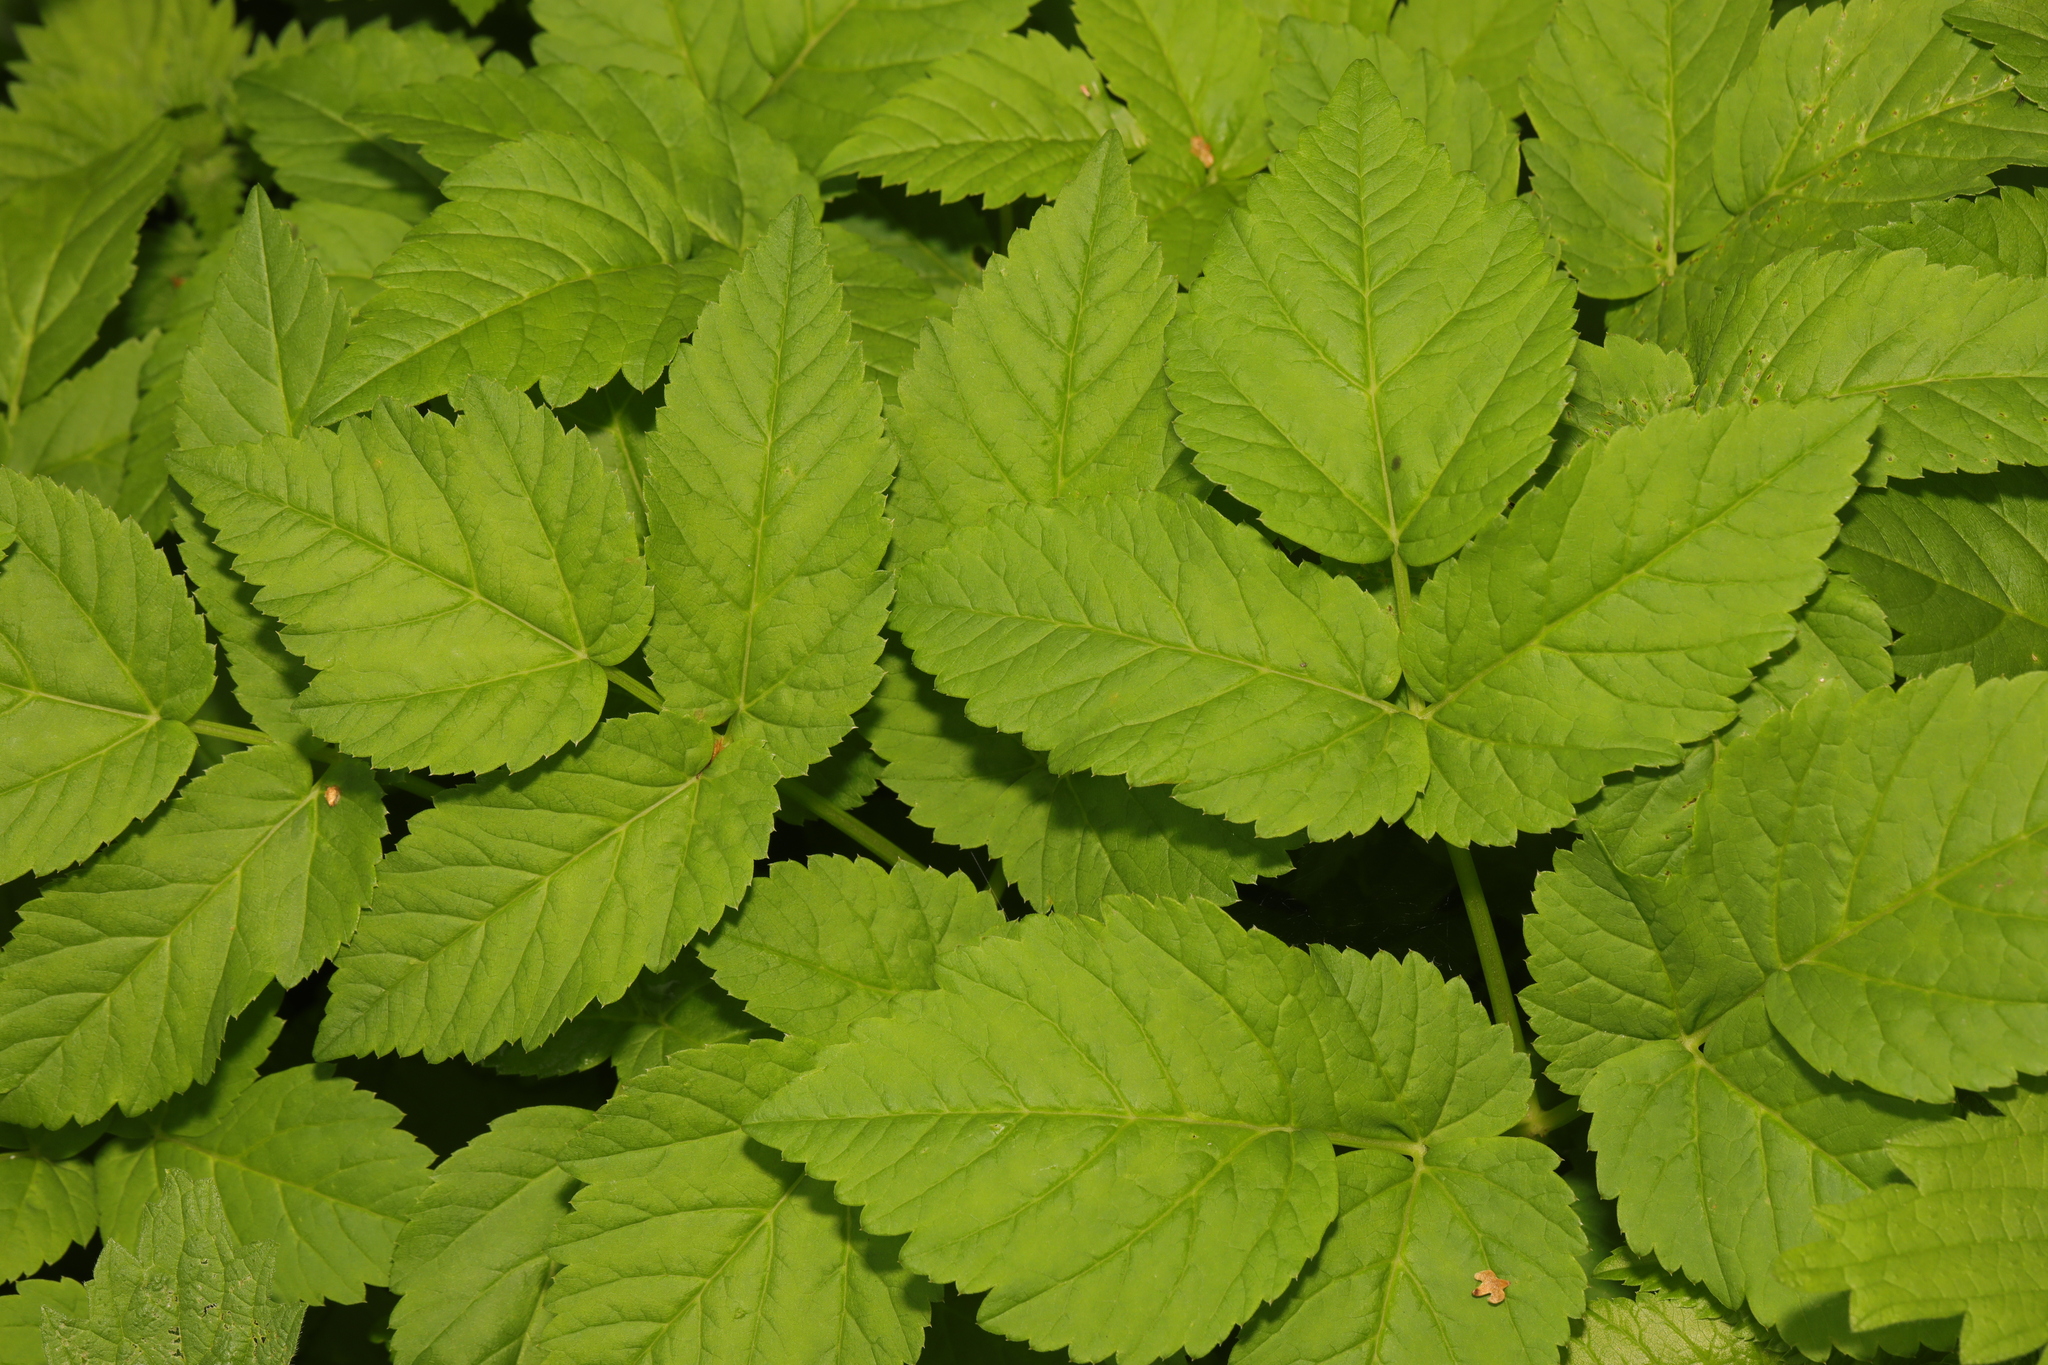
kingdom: Plantae
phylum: Tracheophyta
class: Magnoliopsida
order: Apiales
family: Apiaceae
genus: Aegopodium
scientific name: Aegopodium podagraria
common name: Ground-elder
